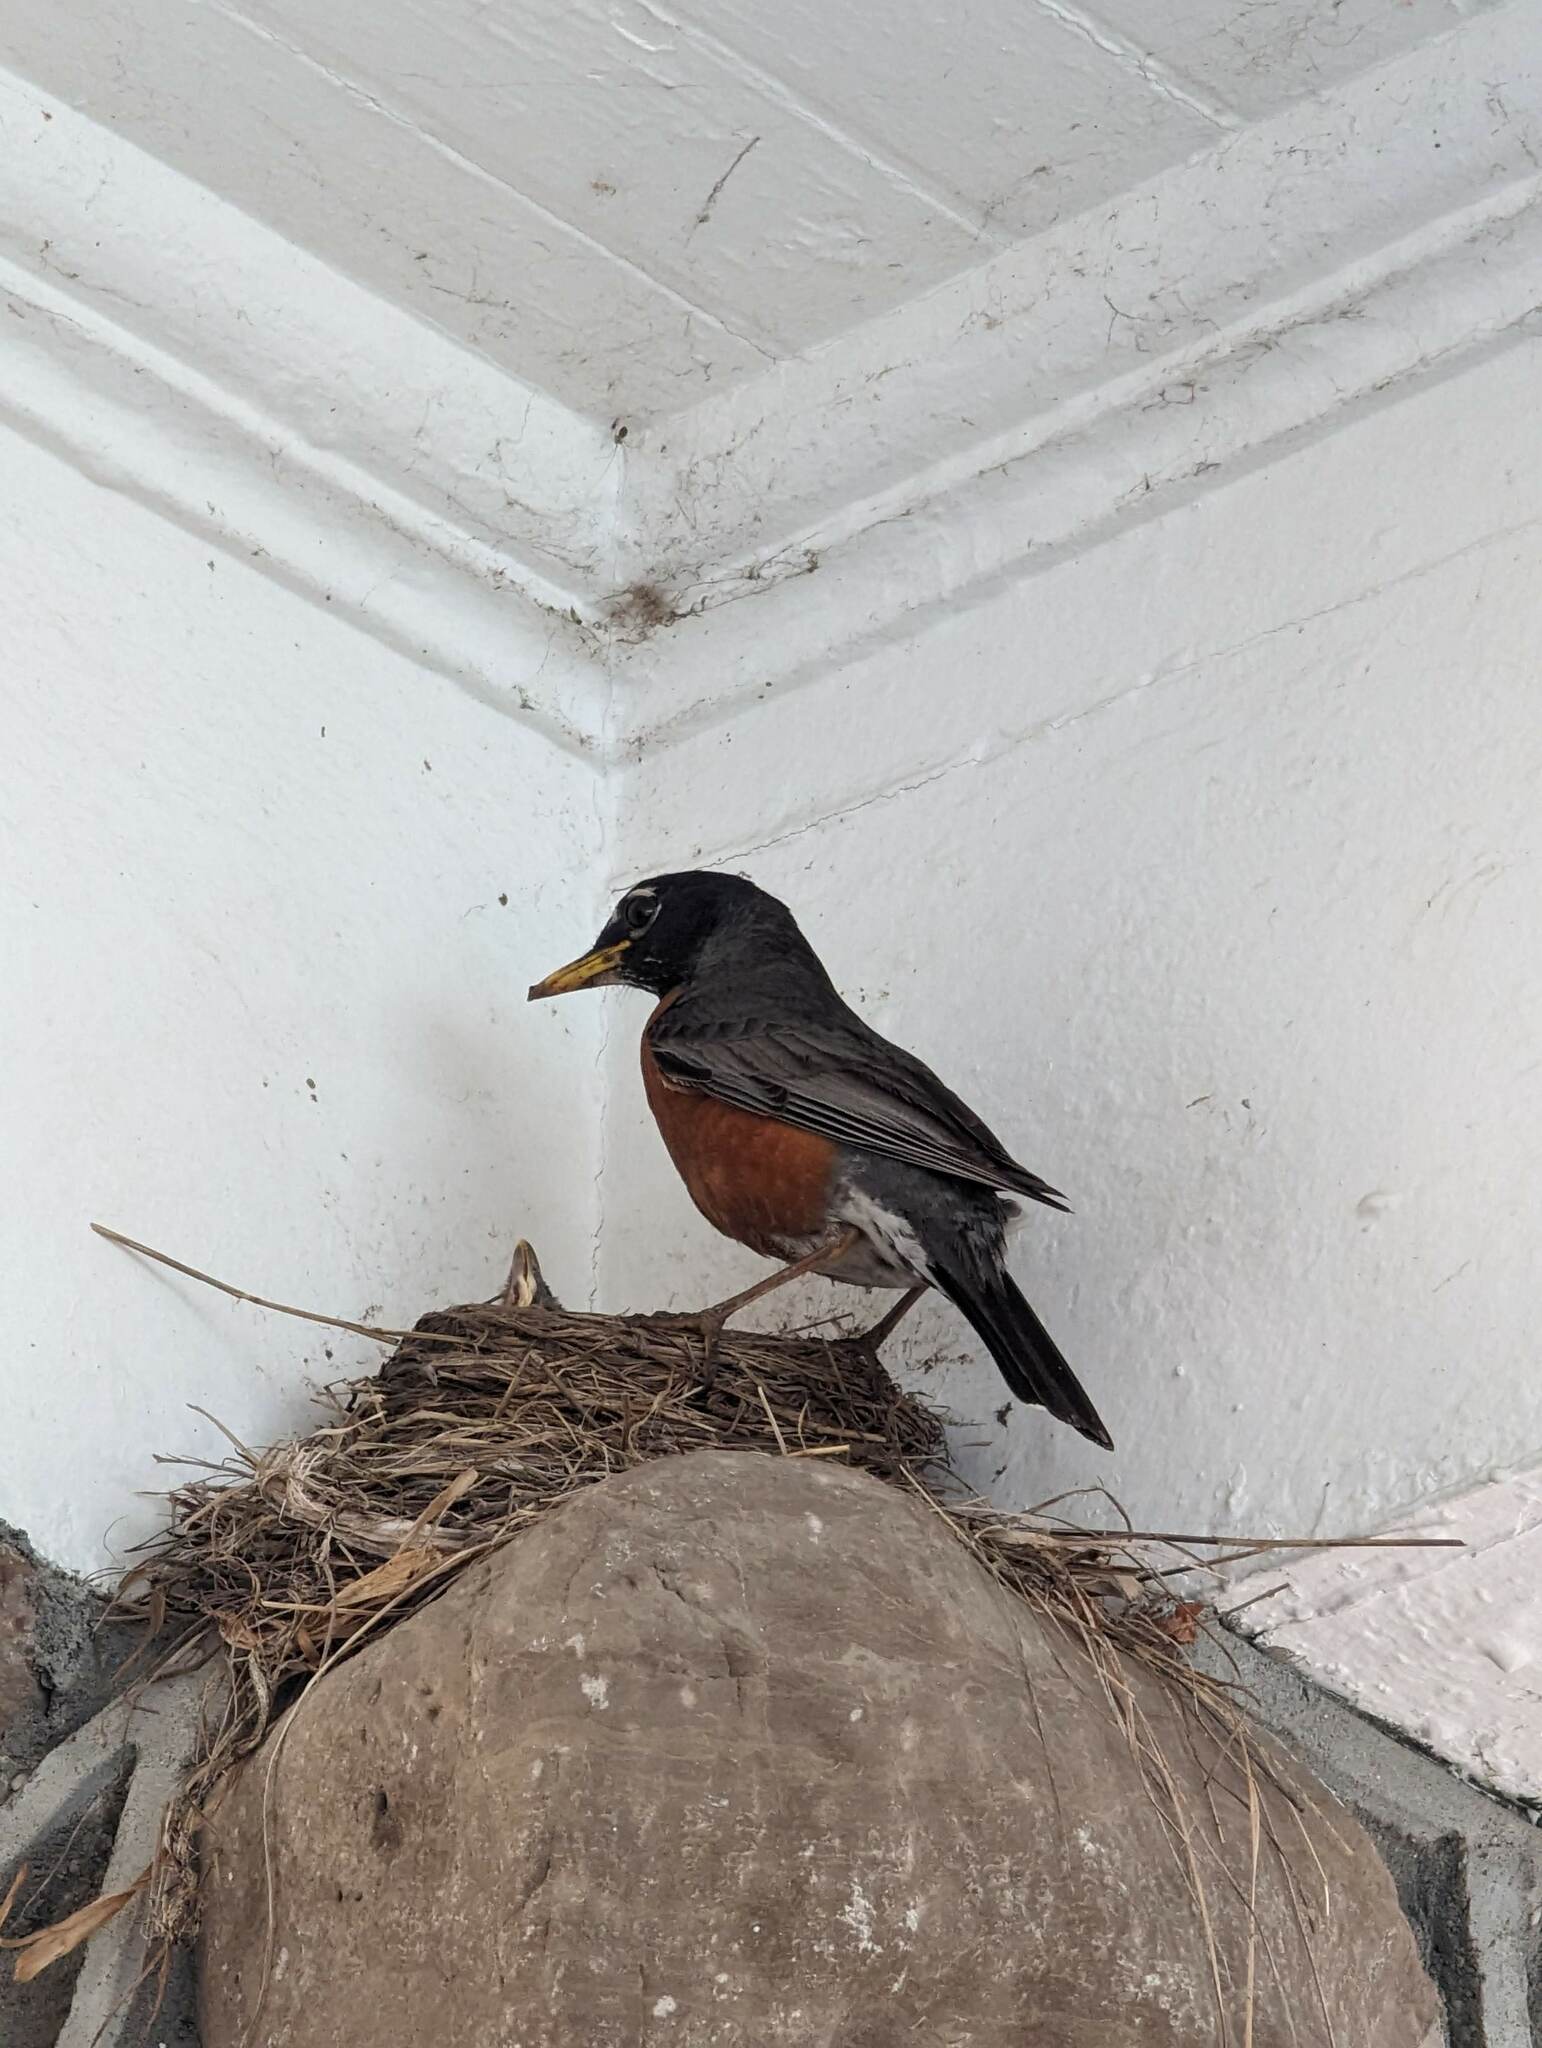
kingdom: Animalia
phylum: Chordata
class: Aves
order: Passeriformes
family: Turdidae
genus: Turdus
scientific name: Turdus migratorius
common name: American robin
